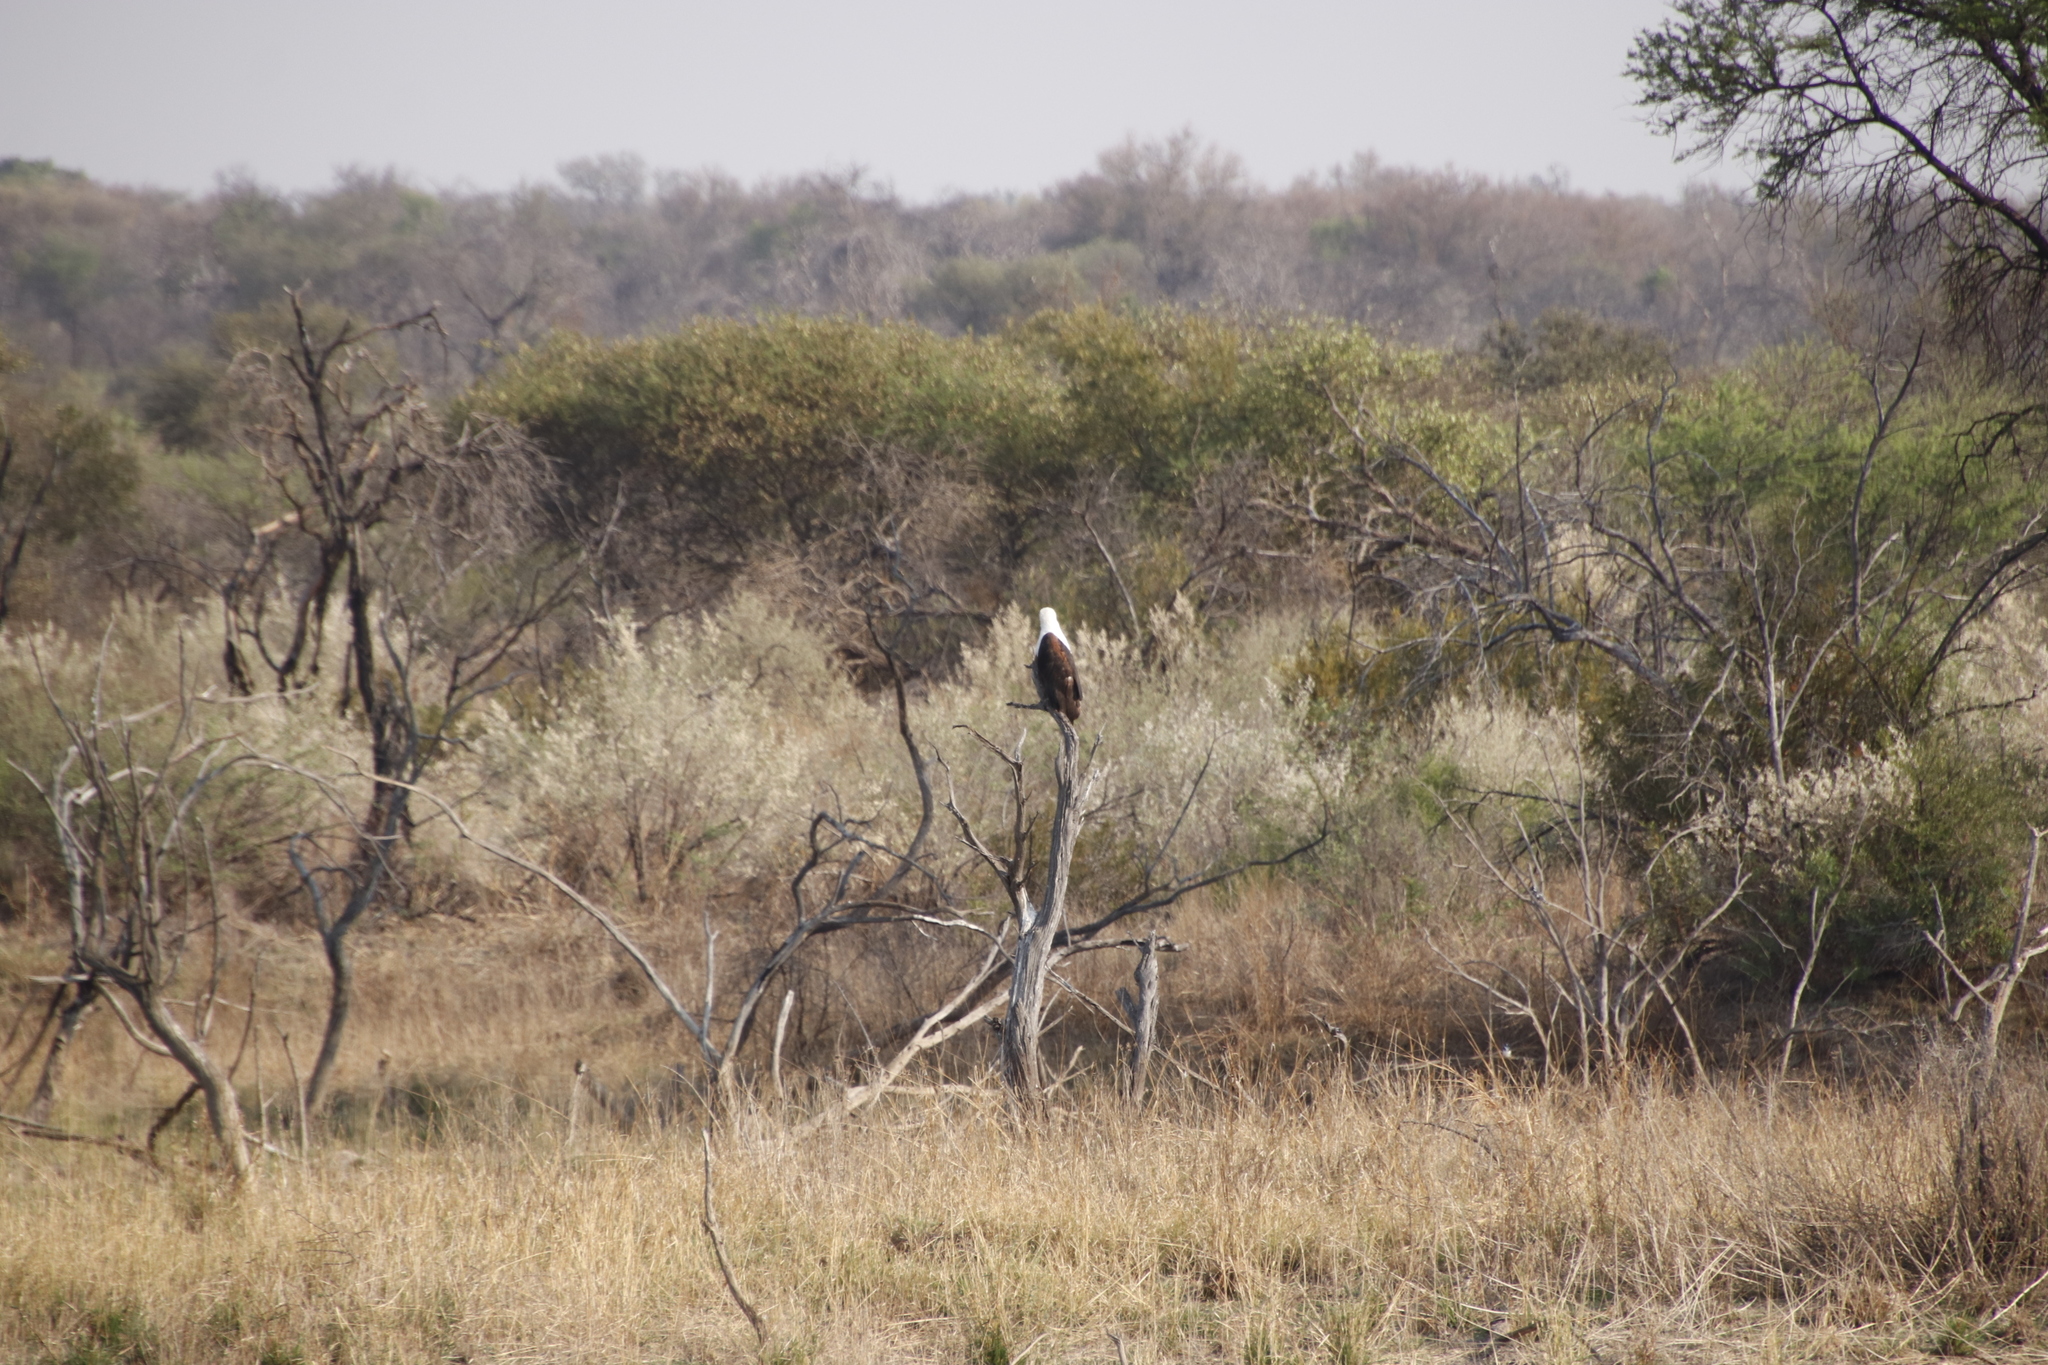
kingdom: Animalia
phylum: Chordata
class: Aves
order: Accipitriformes
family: Accipitridae
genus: Haliaeetus
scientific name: Haliaeetus vocifer
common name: African fish eagle
